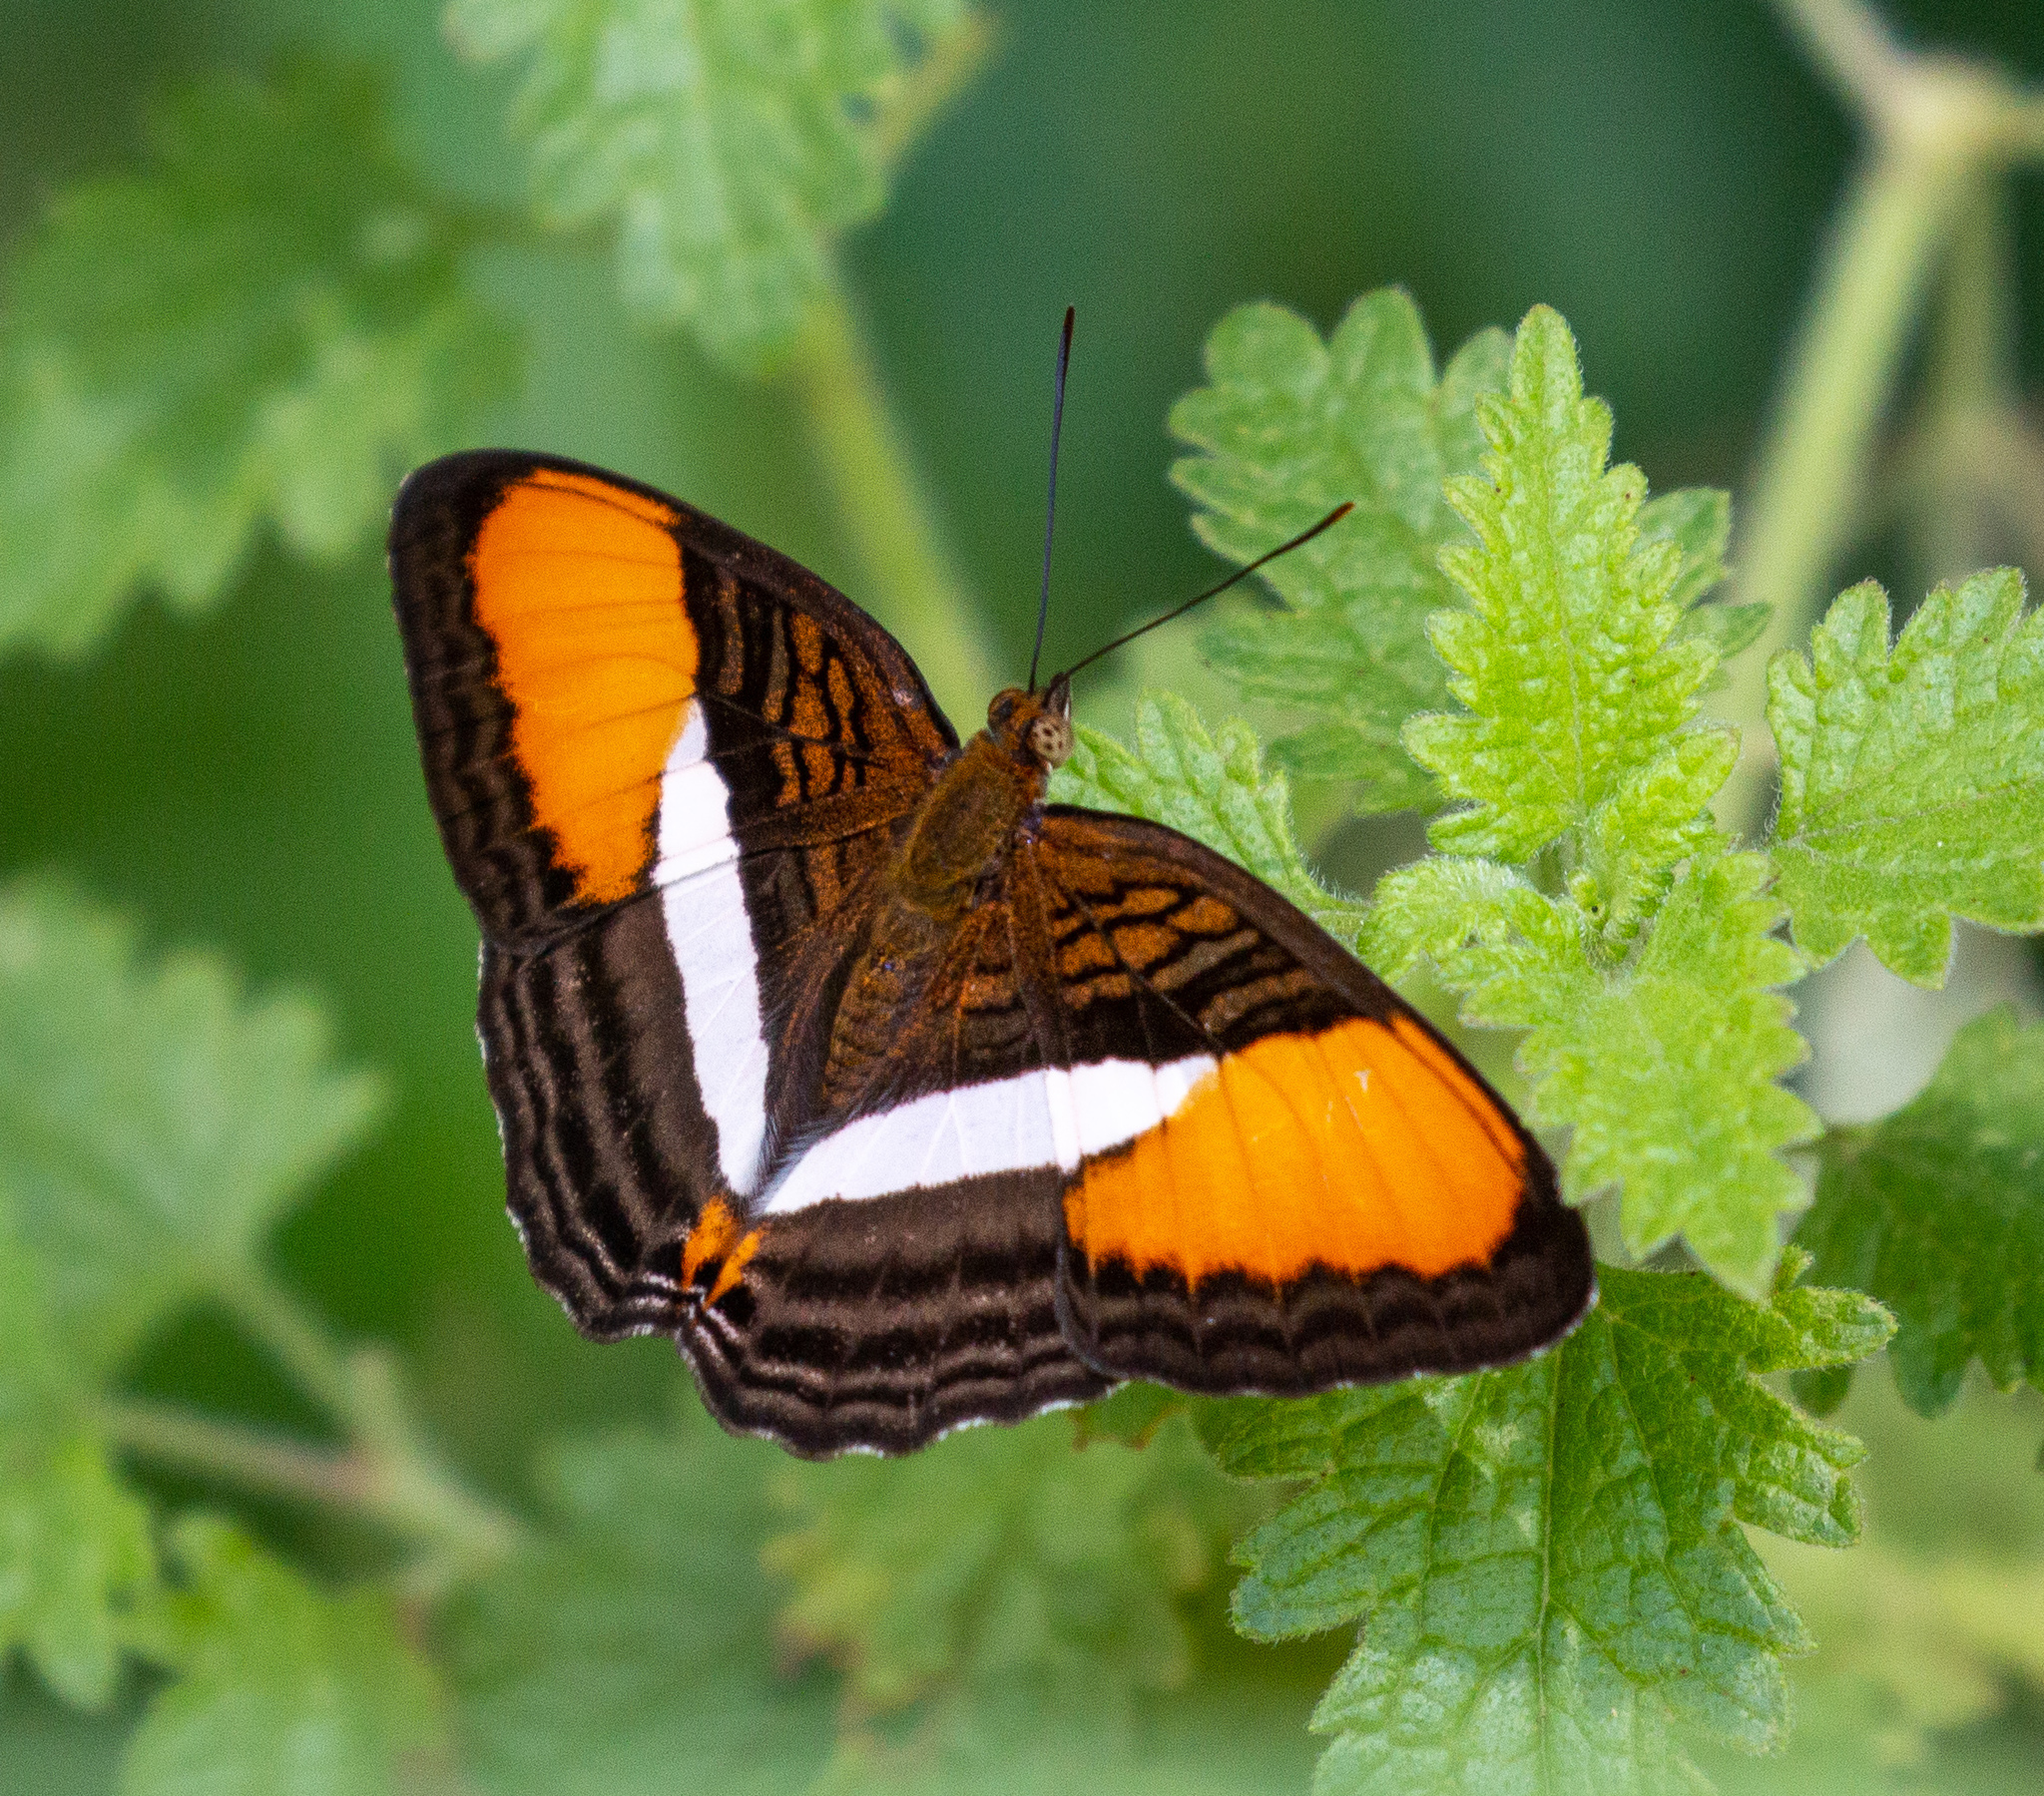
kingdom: Animalia
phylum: Arthropoda
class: Insecta
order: Lepidoptera
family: Nymphalidae
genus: Limenitis
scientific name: Limenitis cytherea
